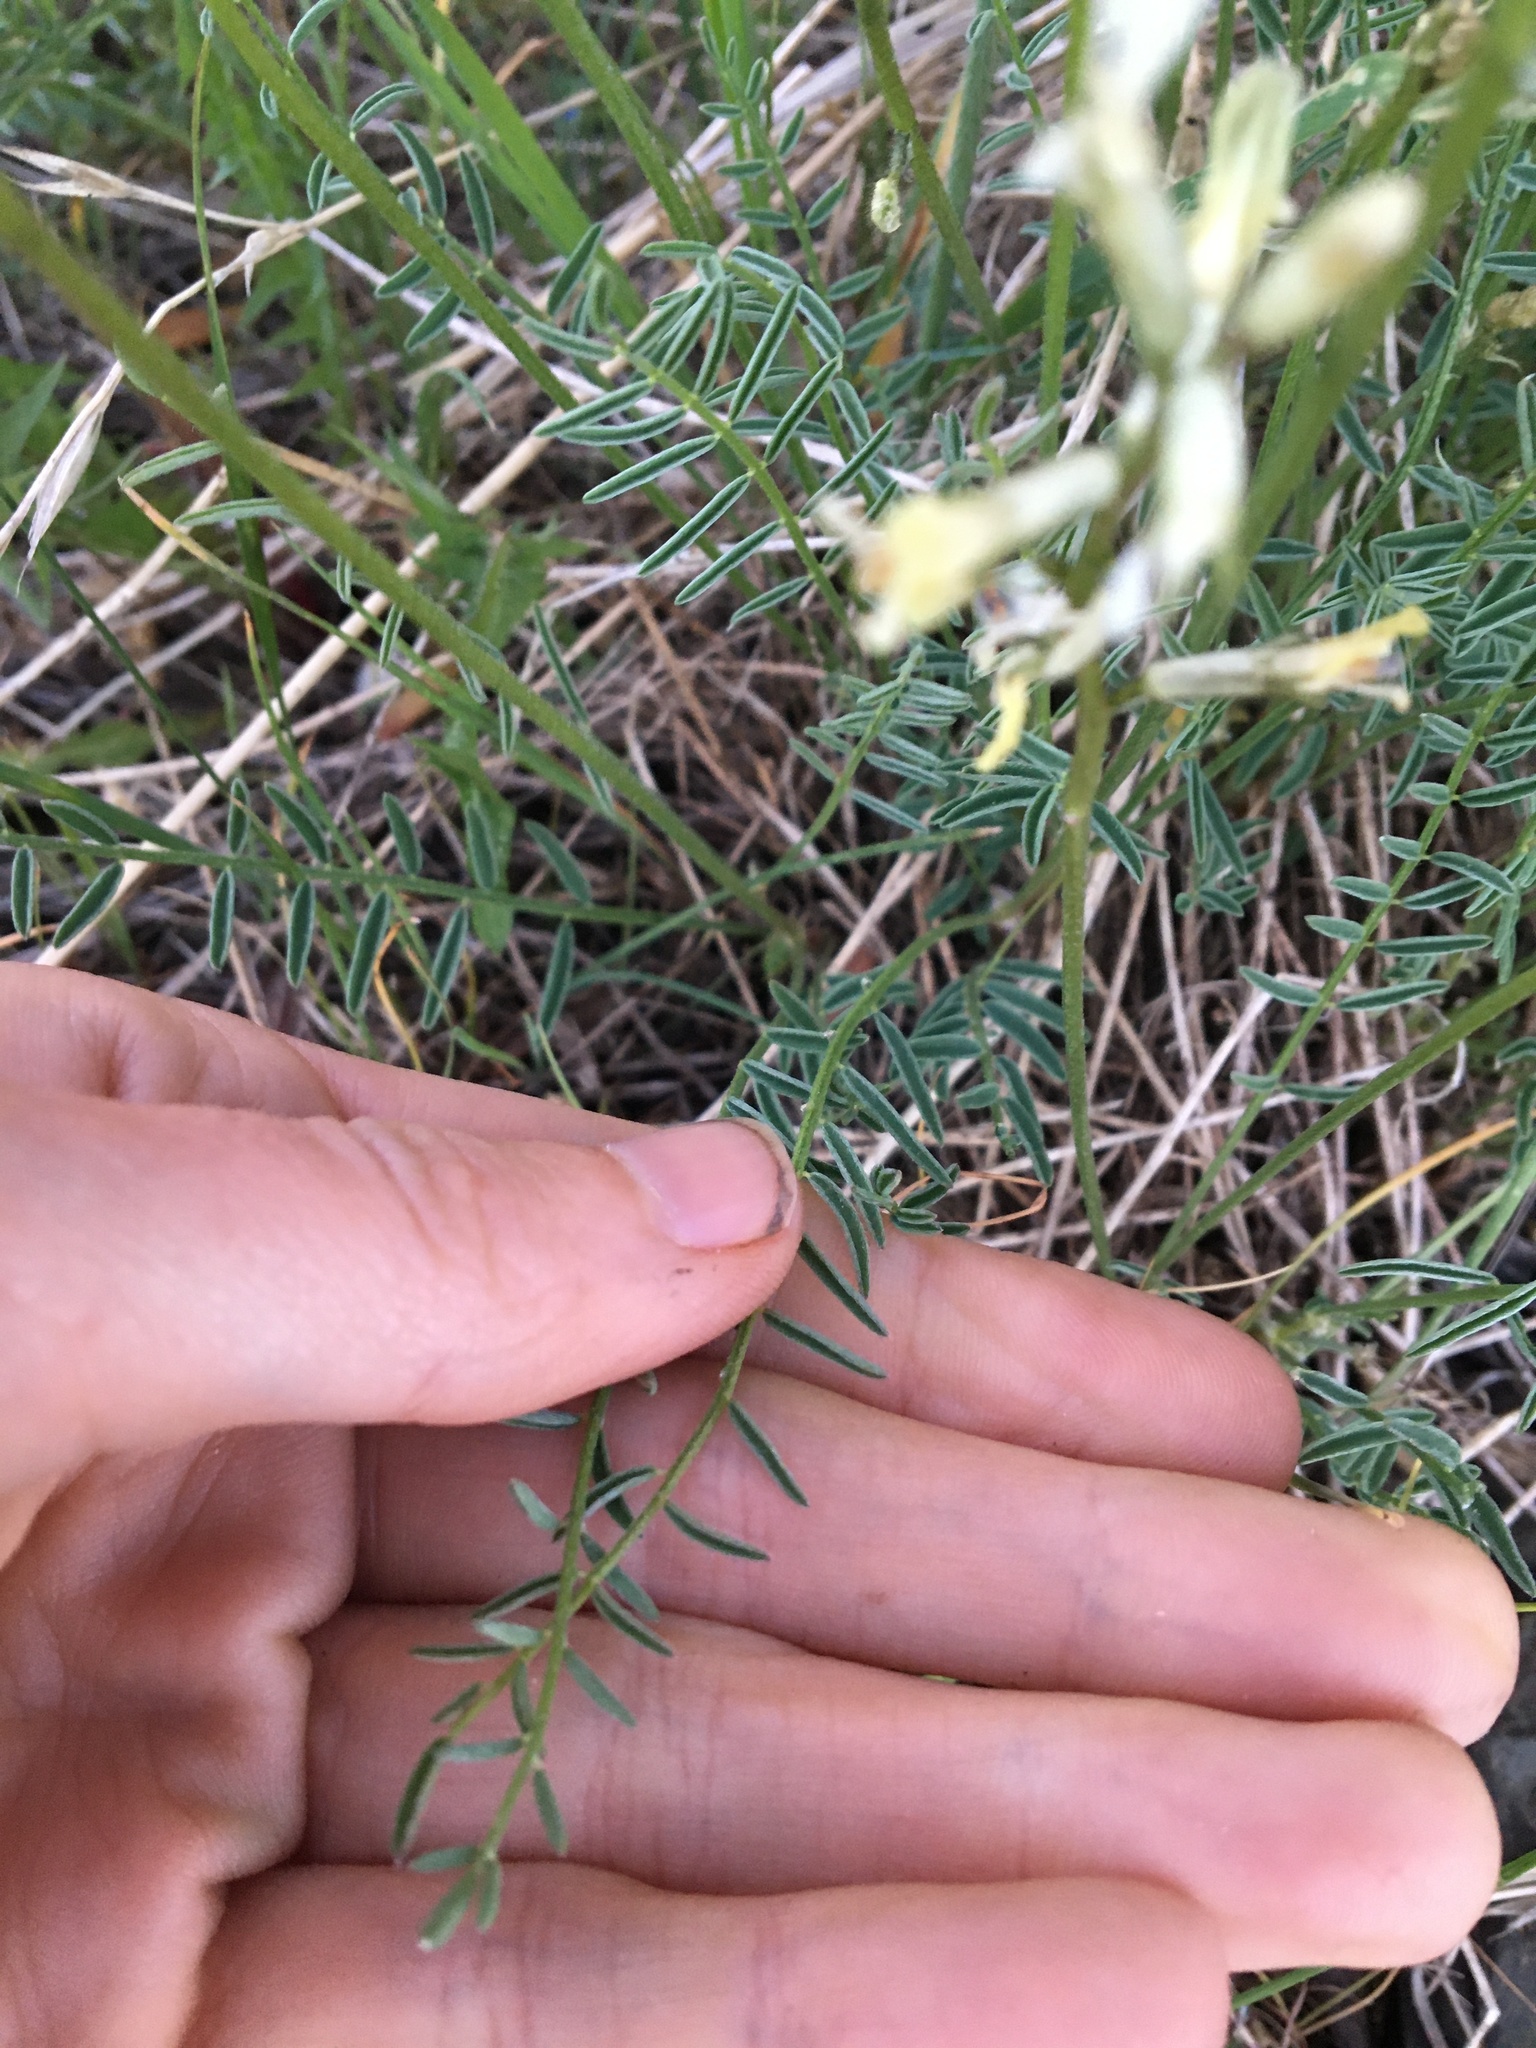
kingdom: Plantae
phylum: Tracheophyta
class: Magnoliopsida
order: Fabales
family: Fabaceae
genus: Astragalus
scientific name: Astragalus conjunctus
